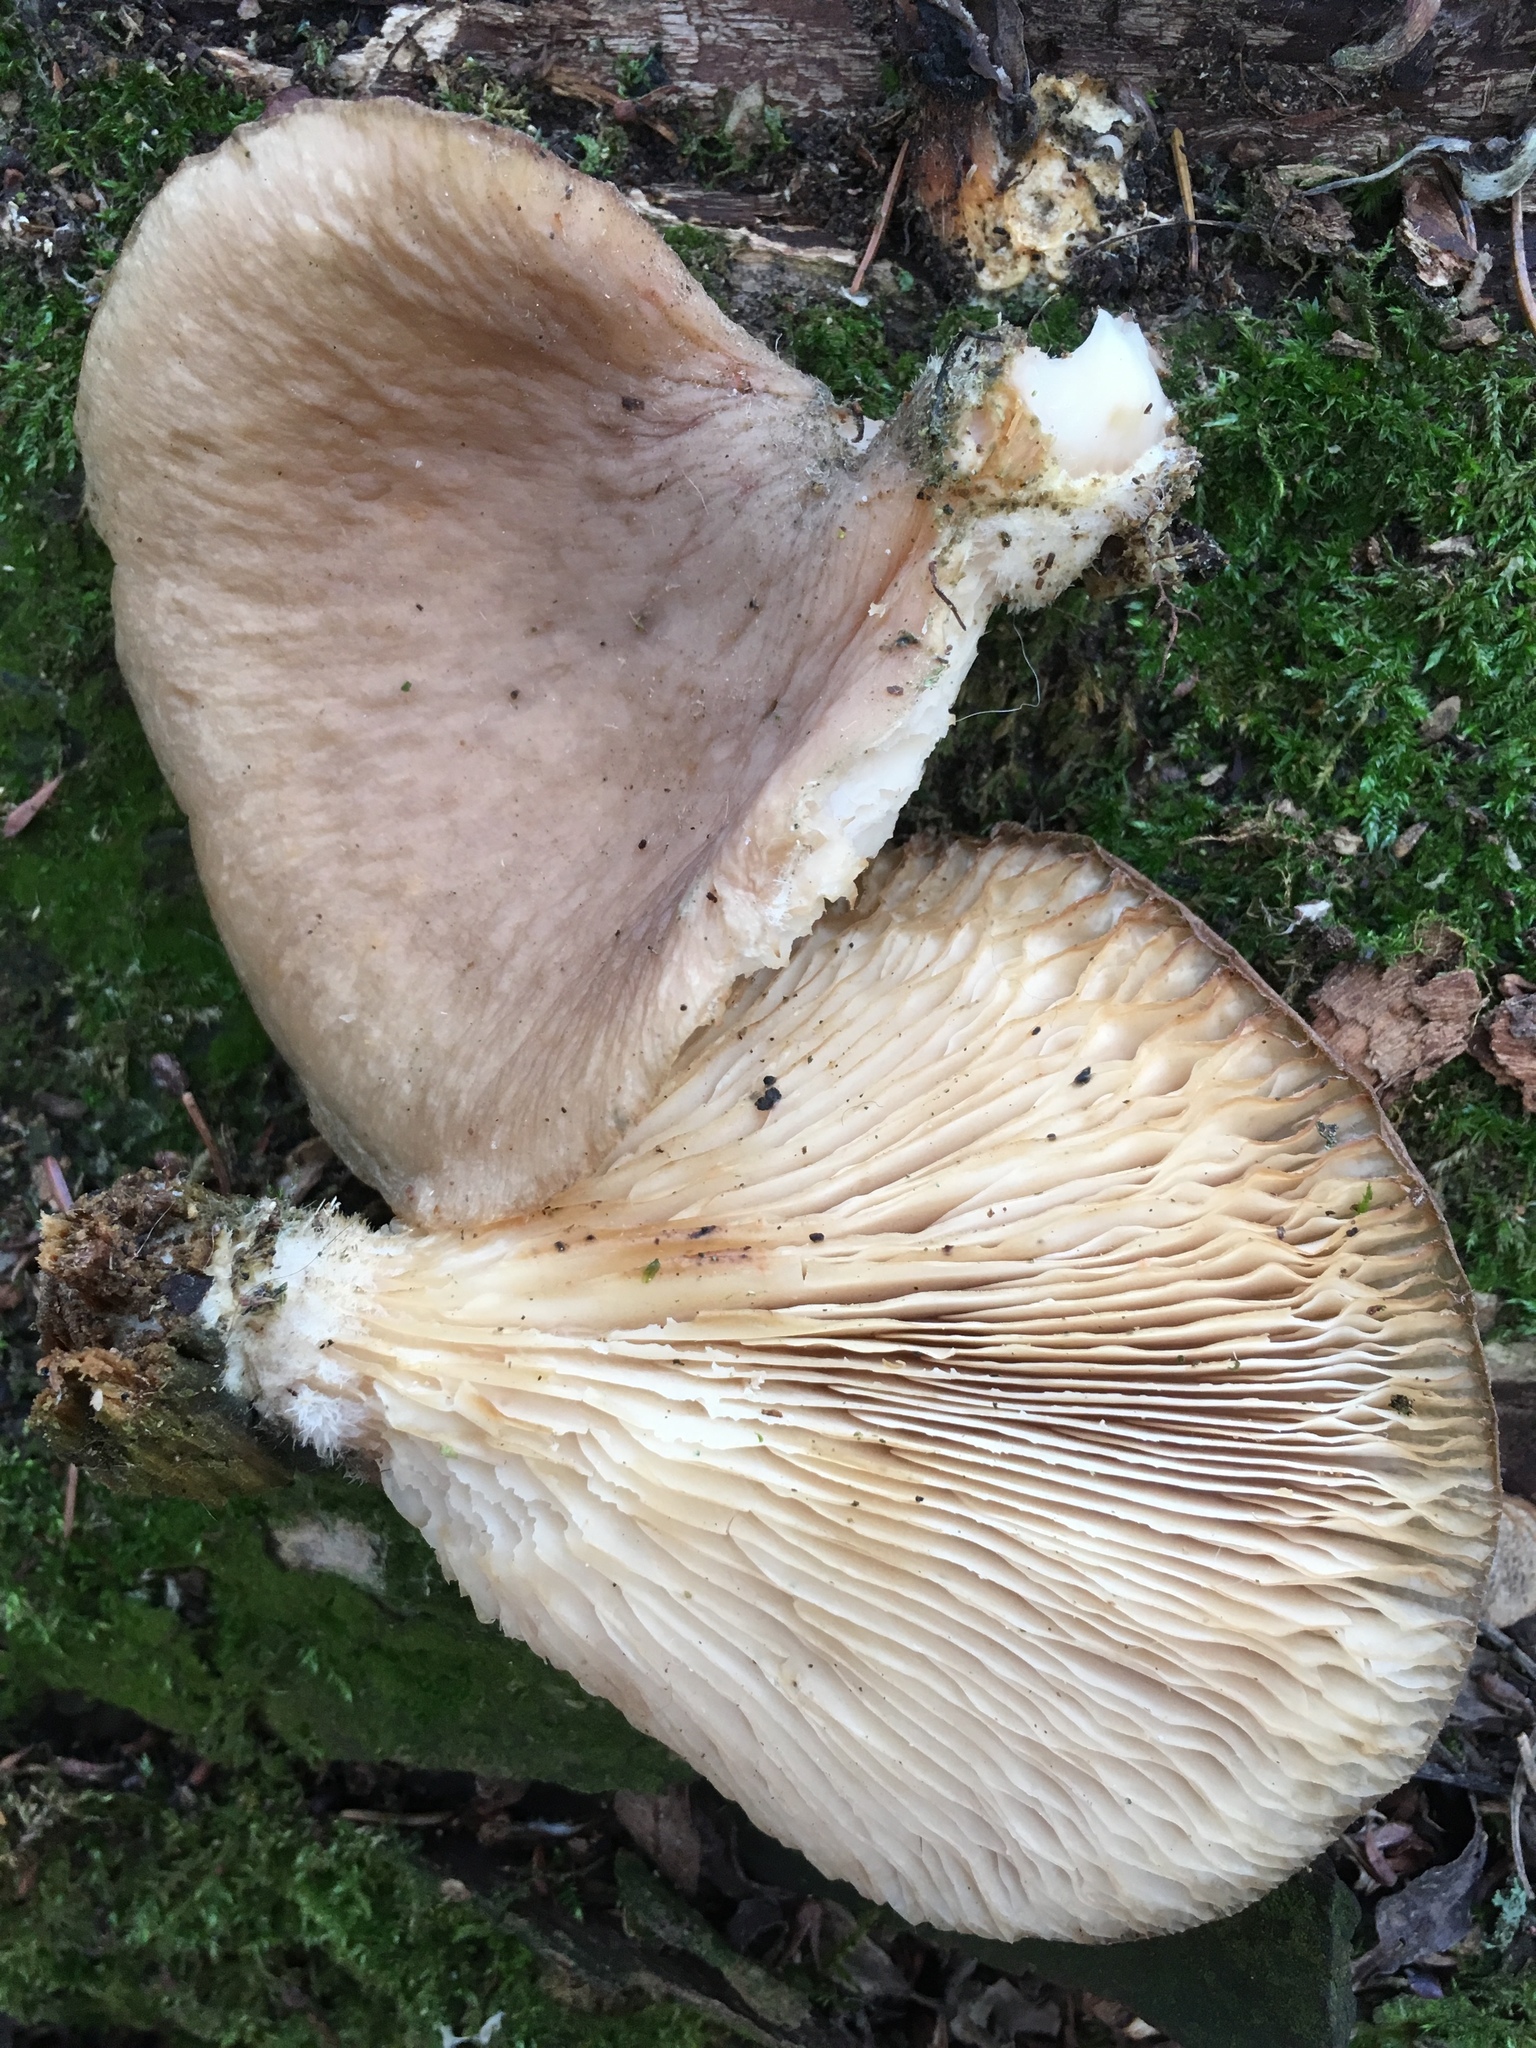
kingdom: Fungi
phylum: Basidiomycota
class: Agaricomycetes
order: Agaricales
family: Pleurotaceae
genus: Pleurotus
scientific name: Pleurotus ostreatus
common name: Oyster mushroom
